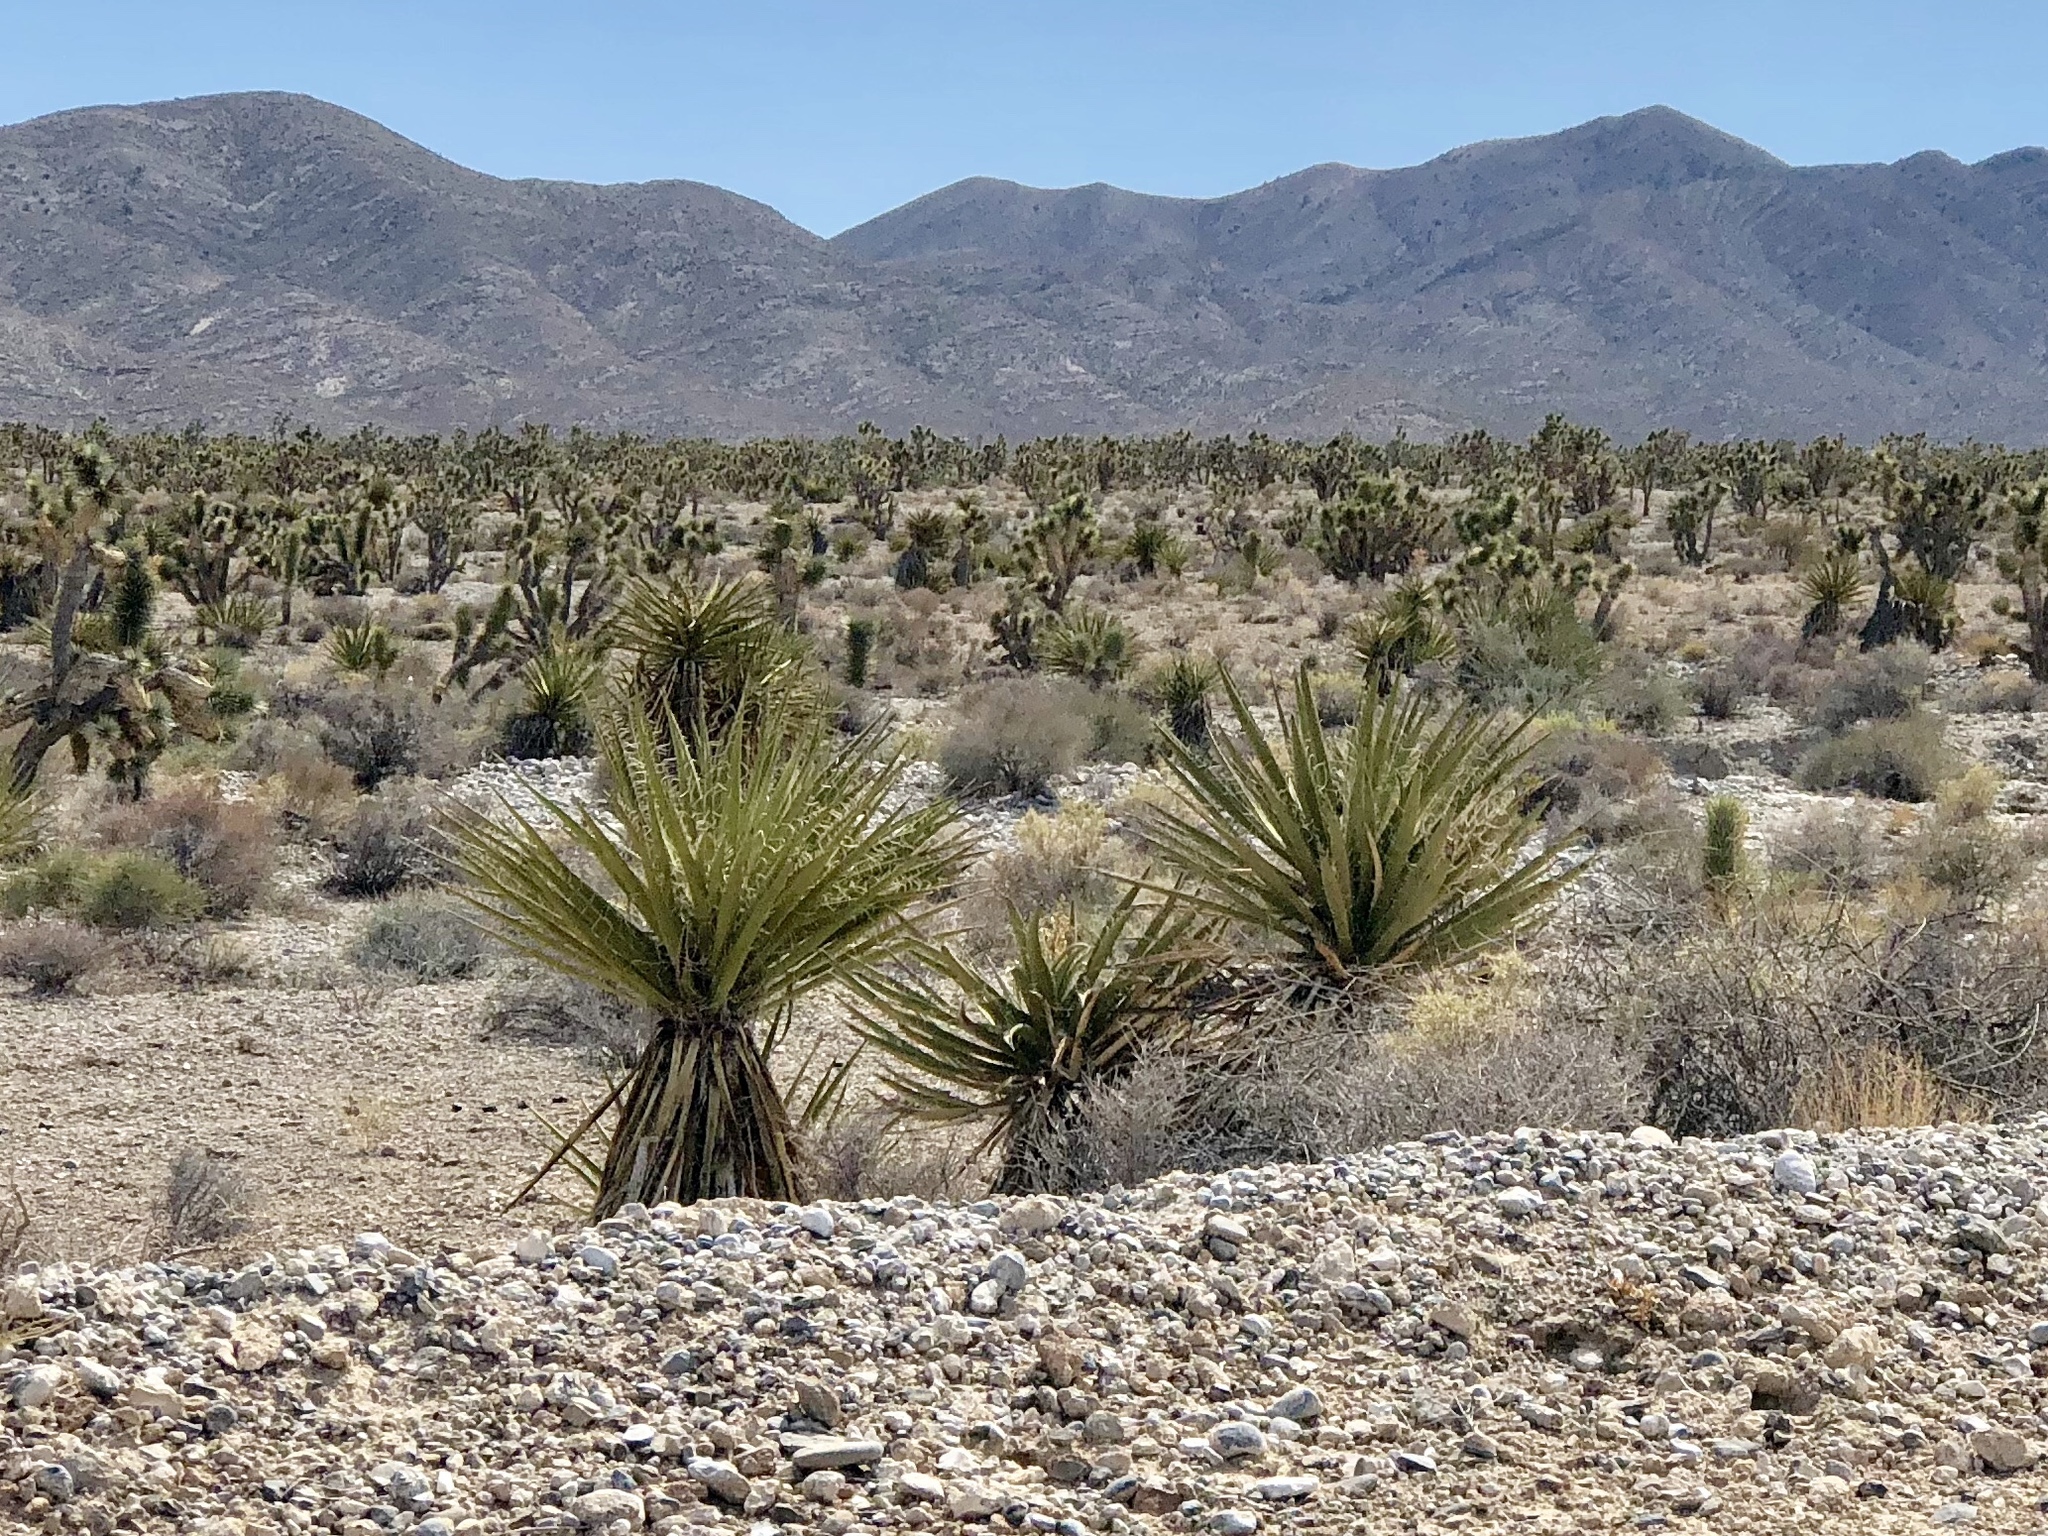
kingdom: Plantae
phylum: Tracheophyta
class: Liliopsida
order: Asparagales
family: Asparagaceae
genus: Yucca
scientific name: Yucca schidigera
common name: Mojave yucca
